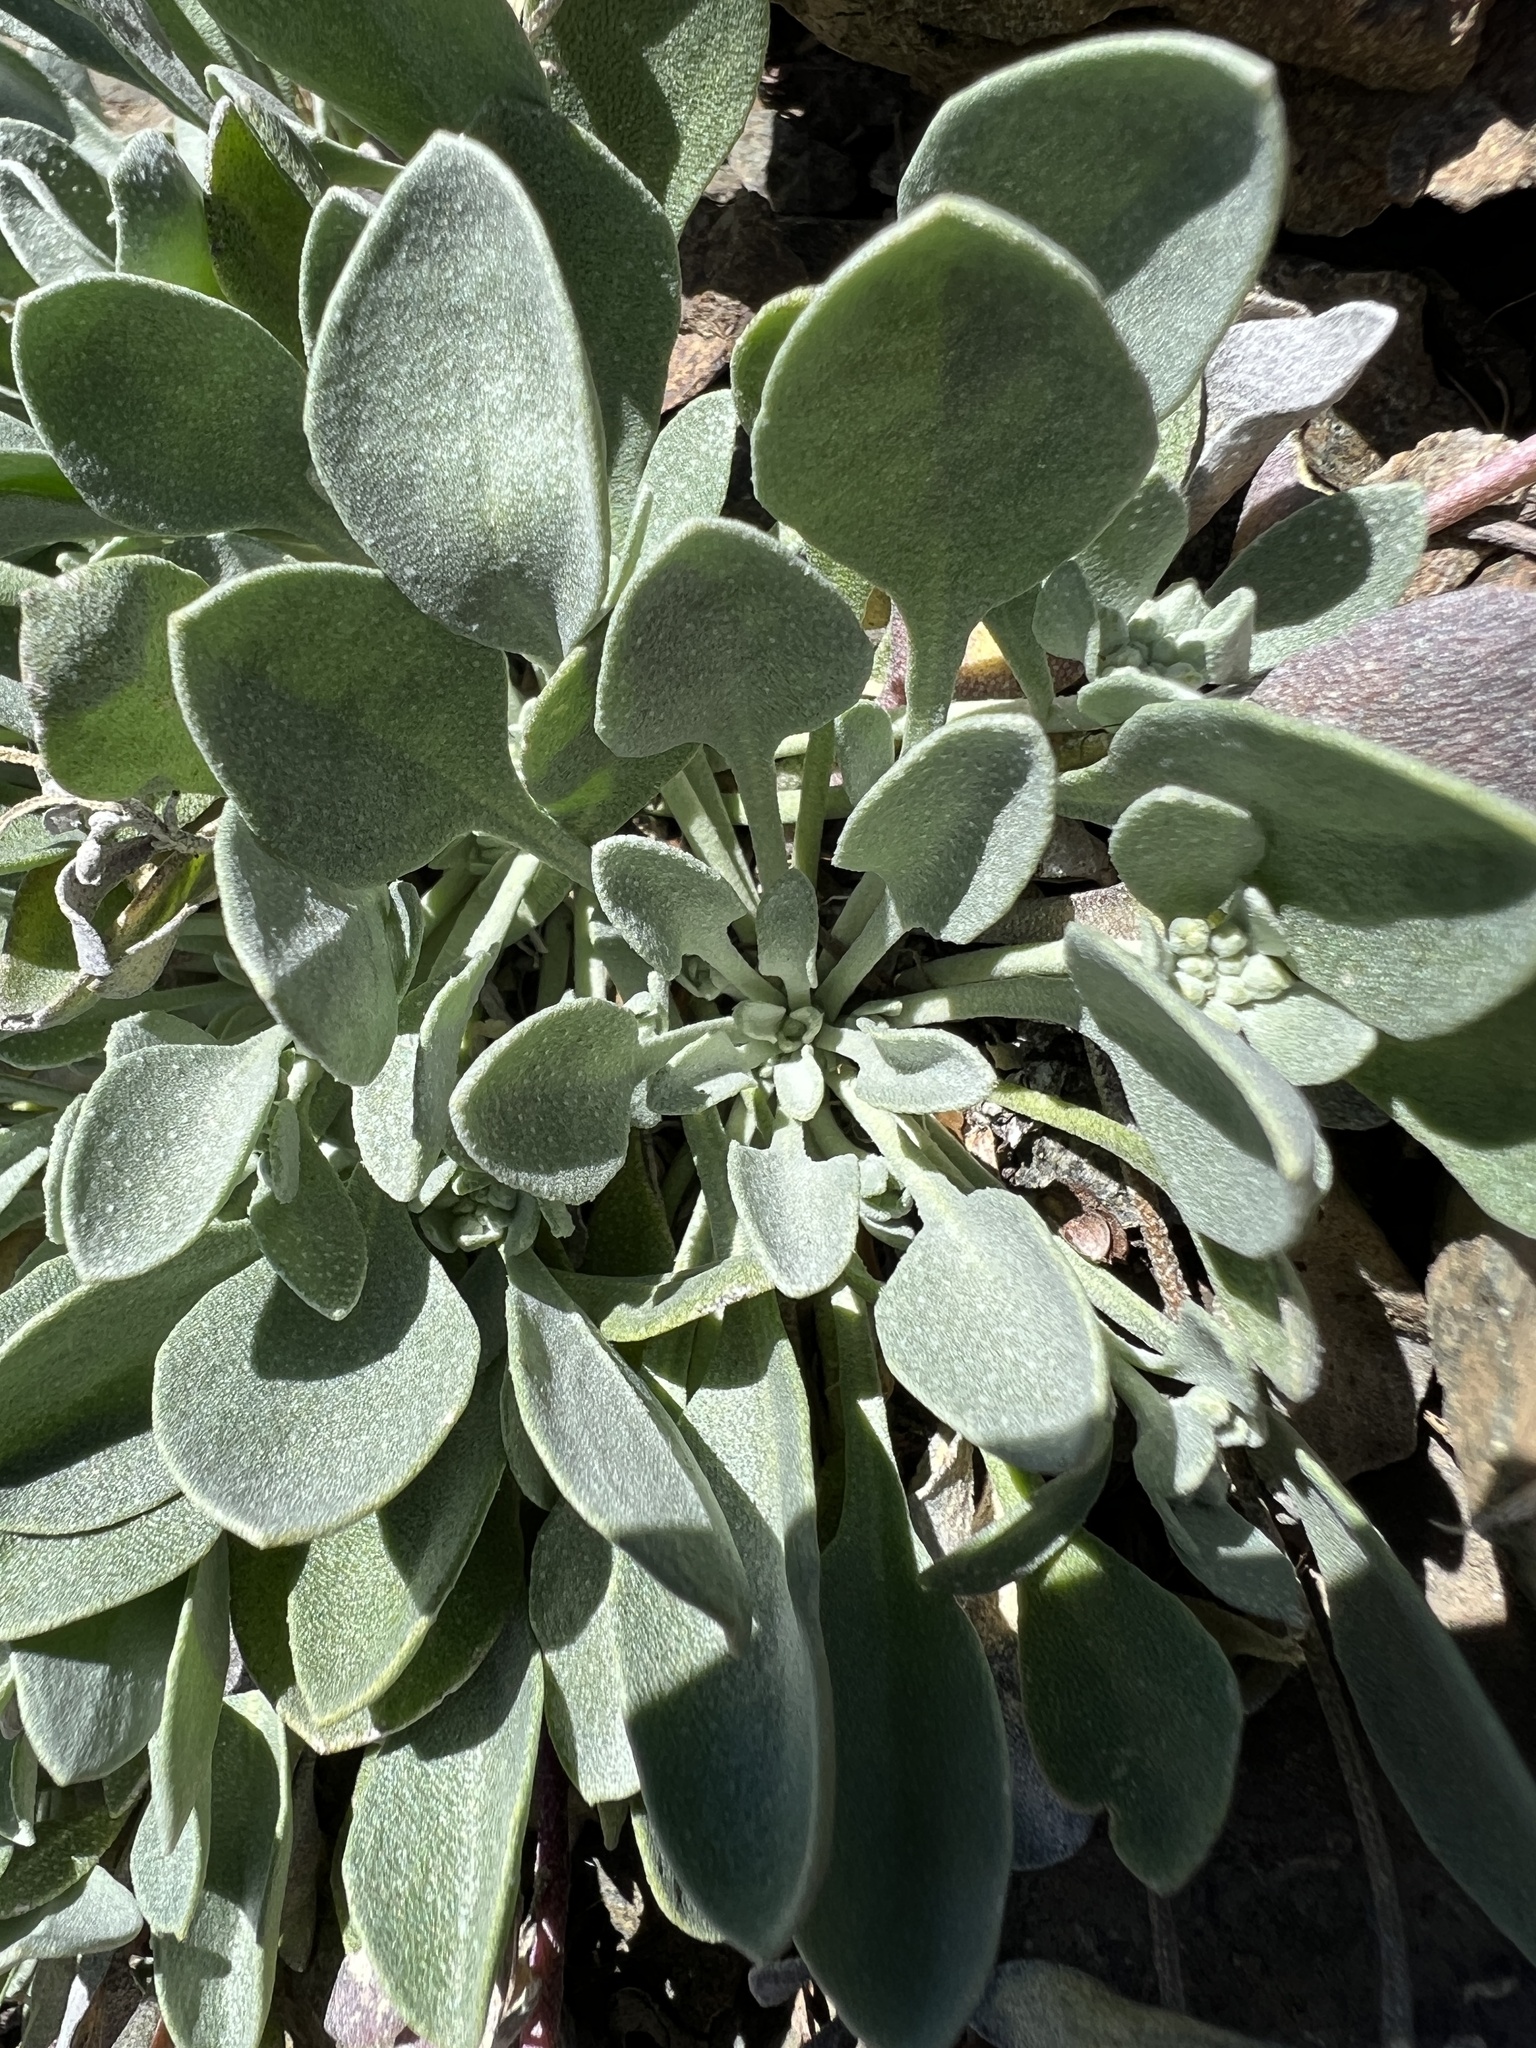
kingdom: Plantae
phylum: Tracheophyta
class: Magnoliopsida
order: Brassicales
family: Brassicaceae
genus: Physaria
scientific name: Physaria alpestris
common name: Washington twinpod
